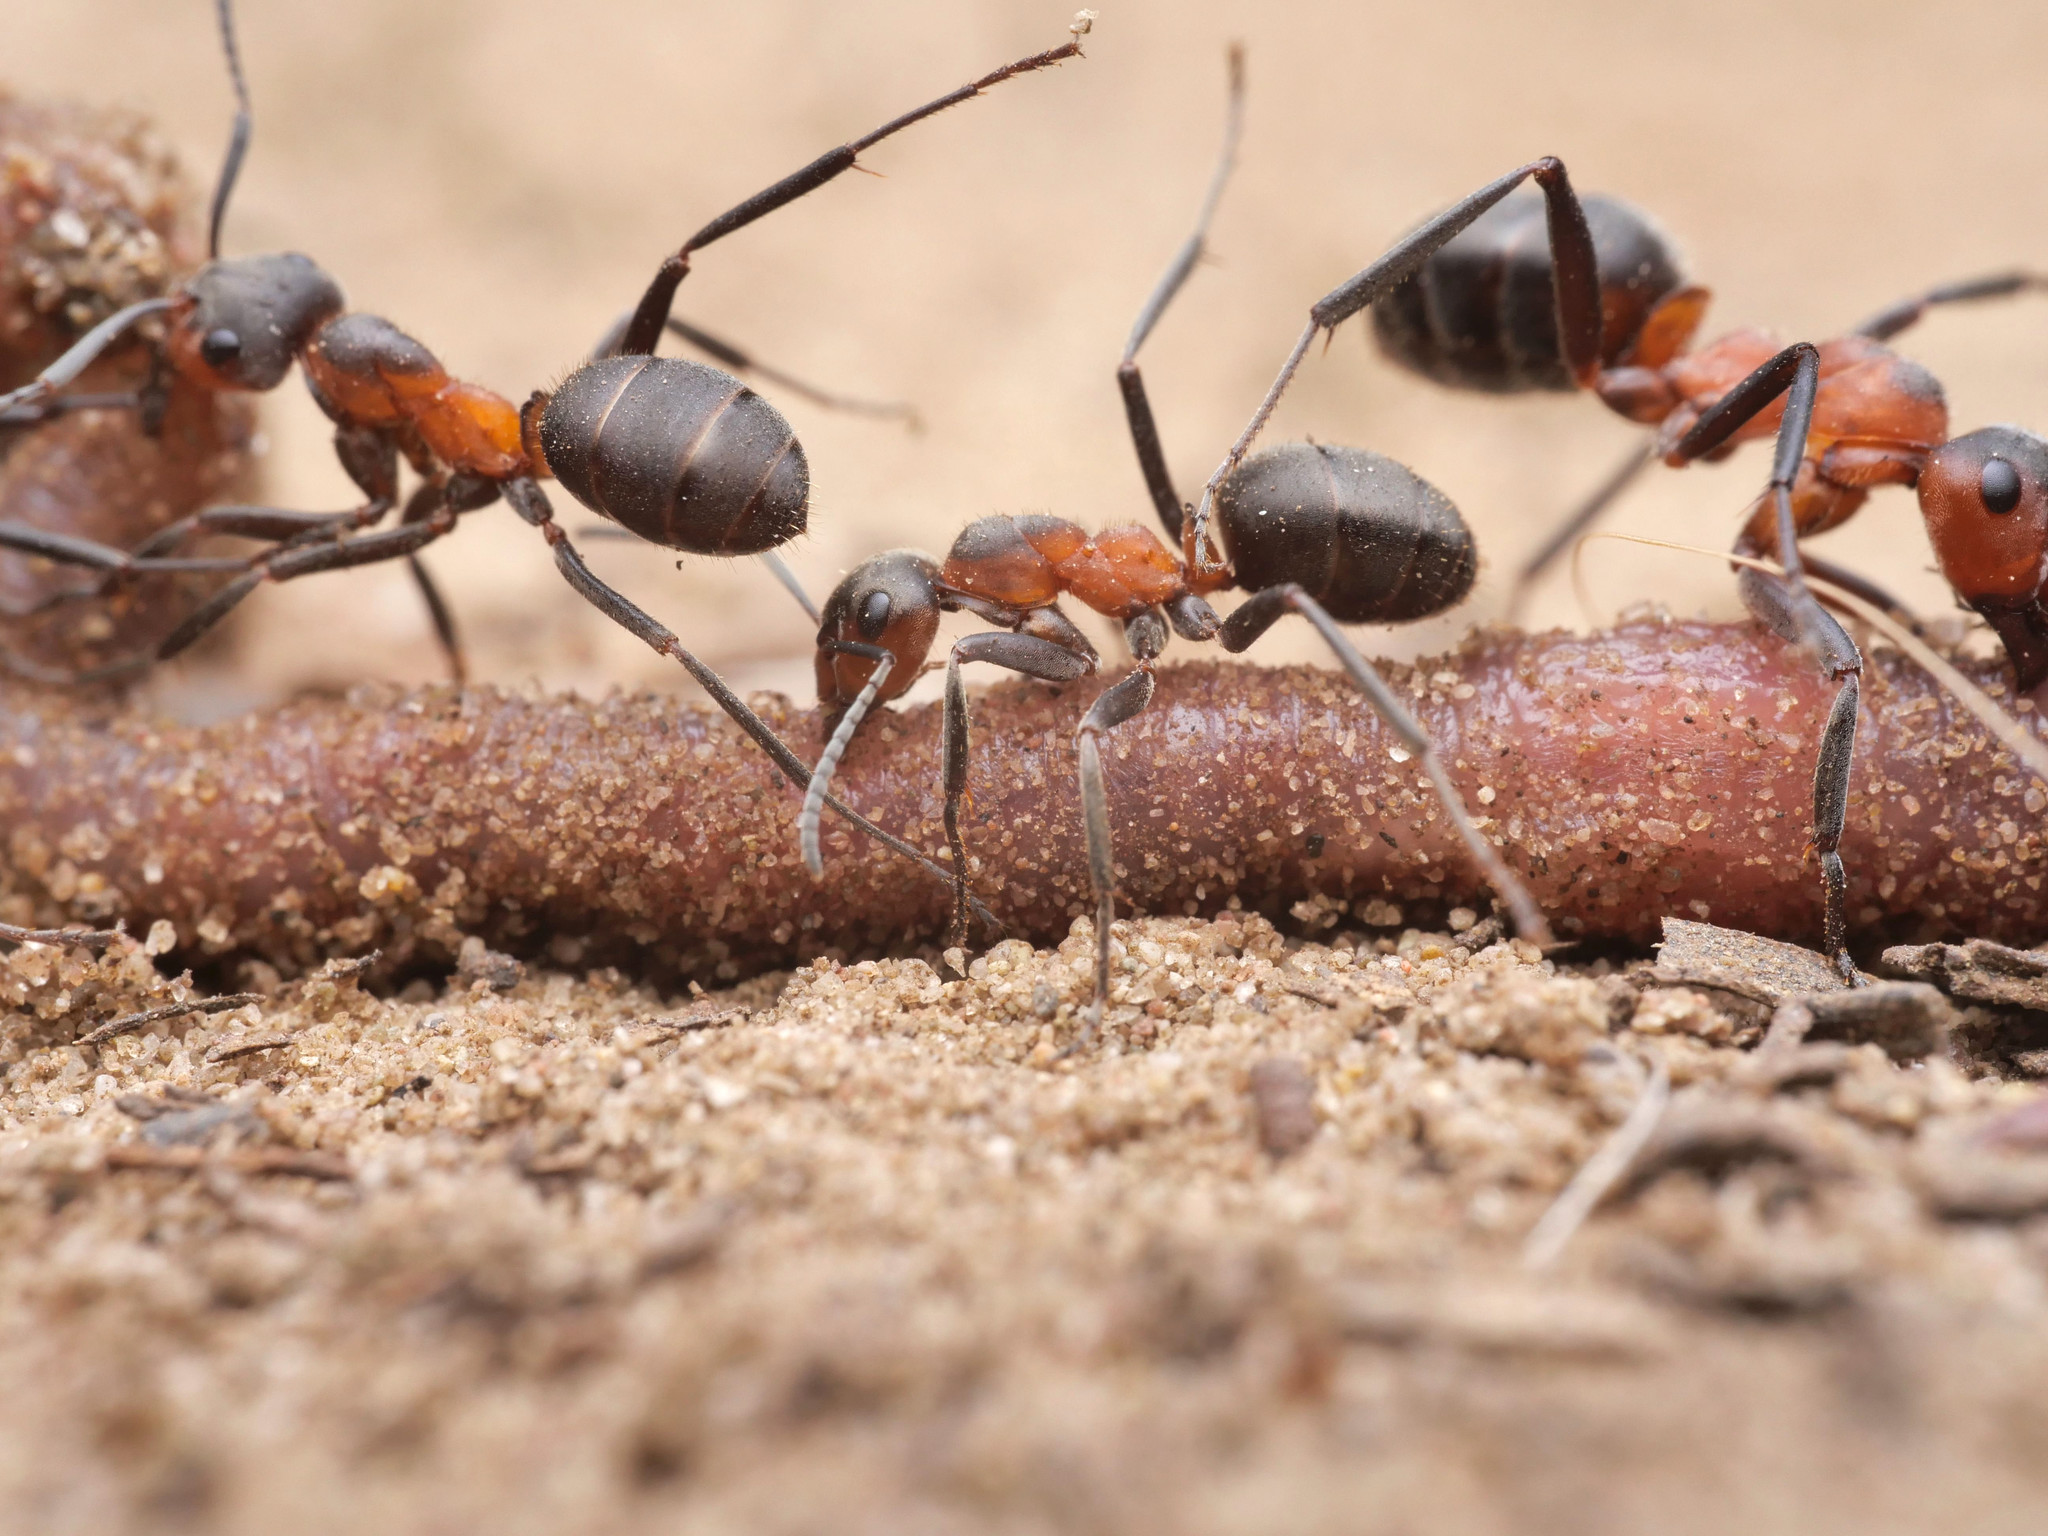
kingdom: Animalia
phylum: Arthropoda
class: Insecta
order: Hymenoptera
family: Formicidae
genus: Formica
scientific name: Formica pratensis
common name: European red wood ant
